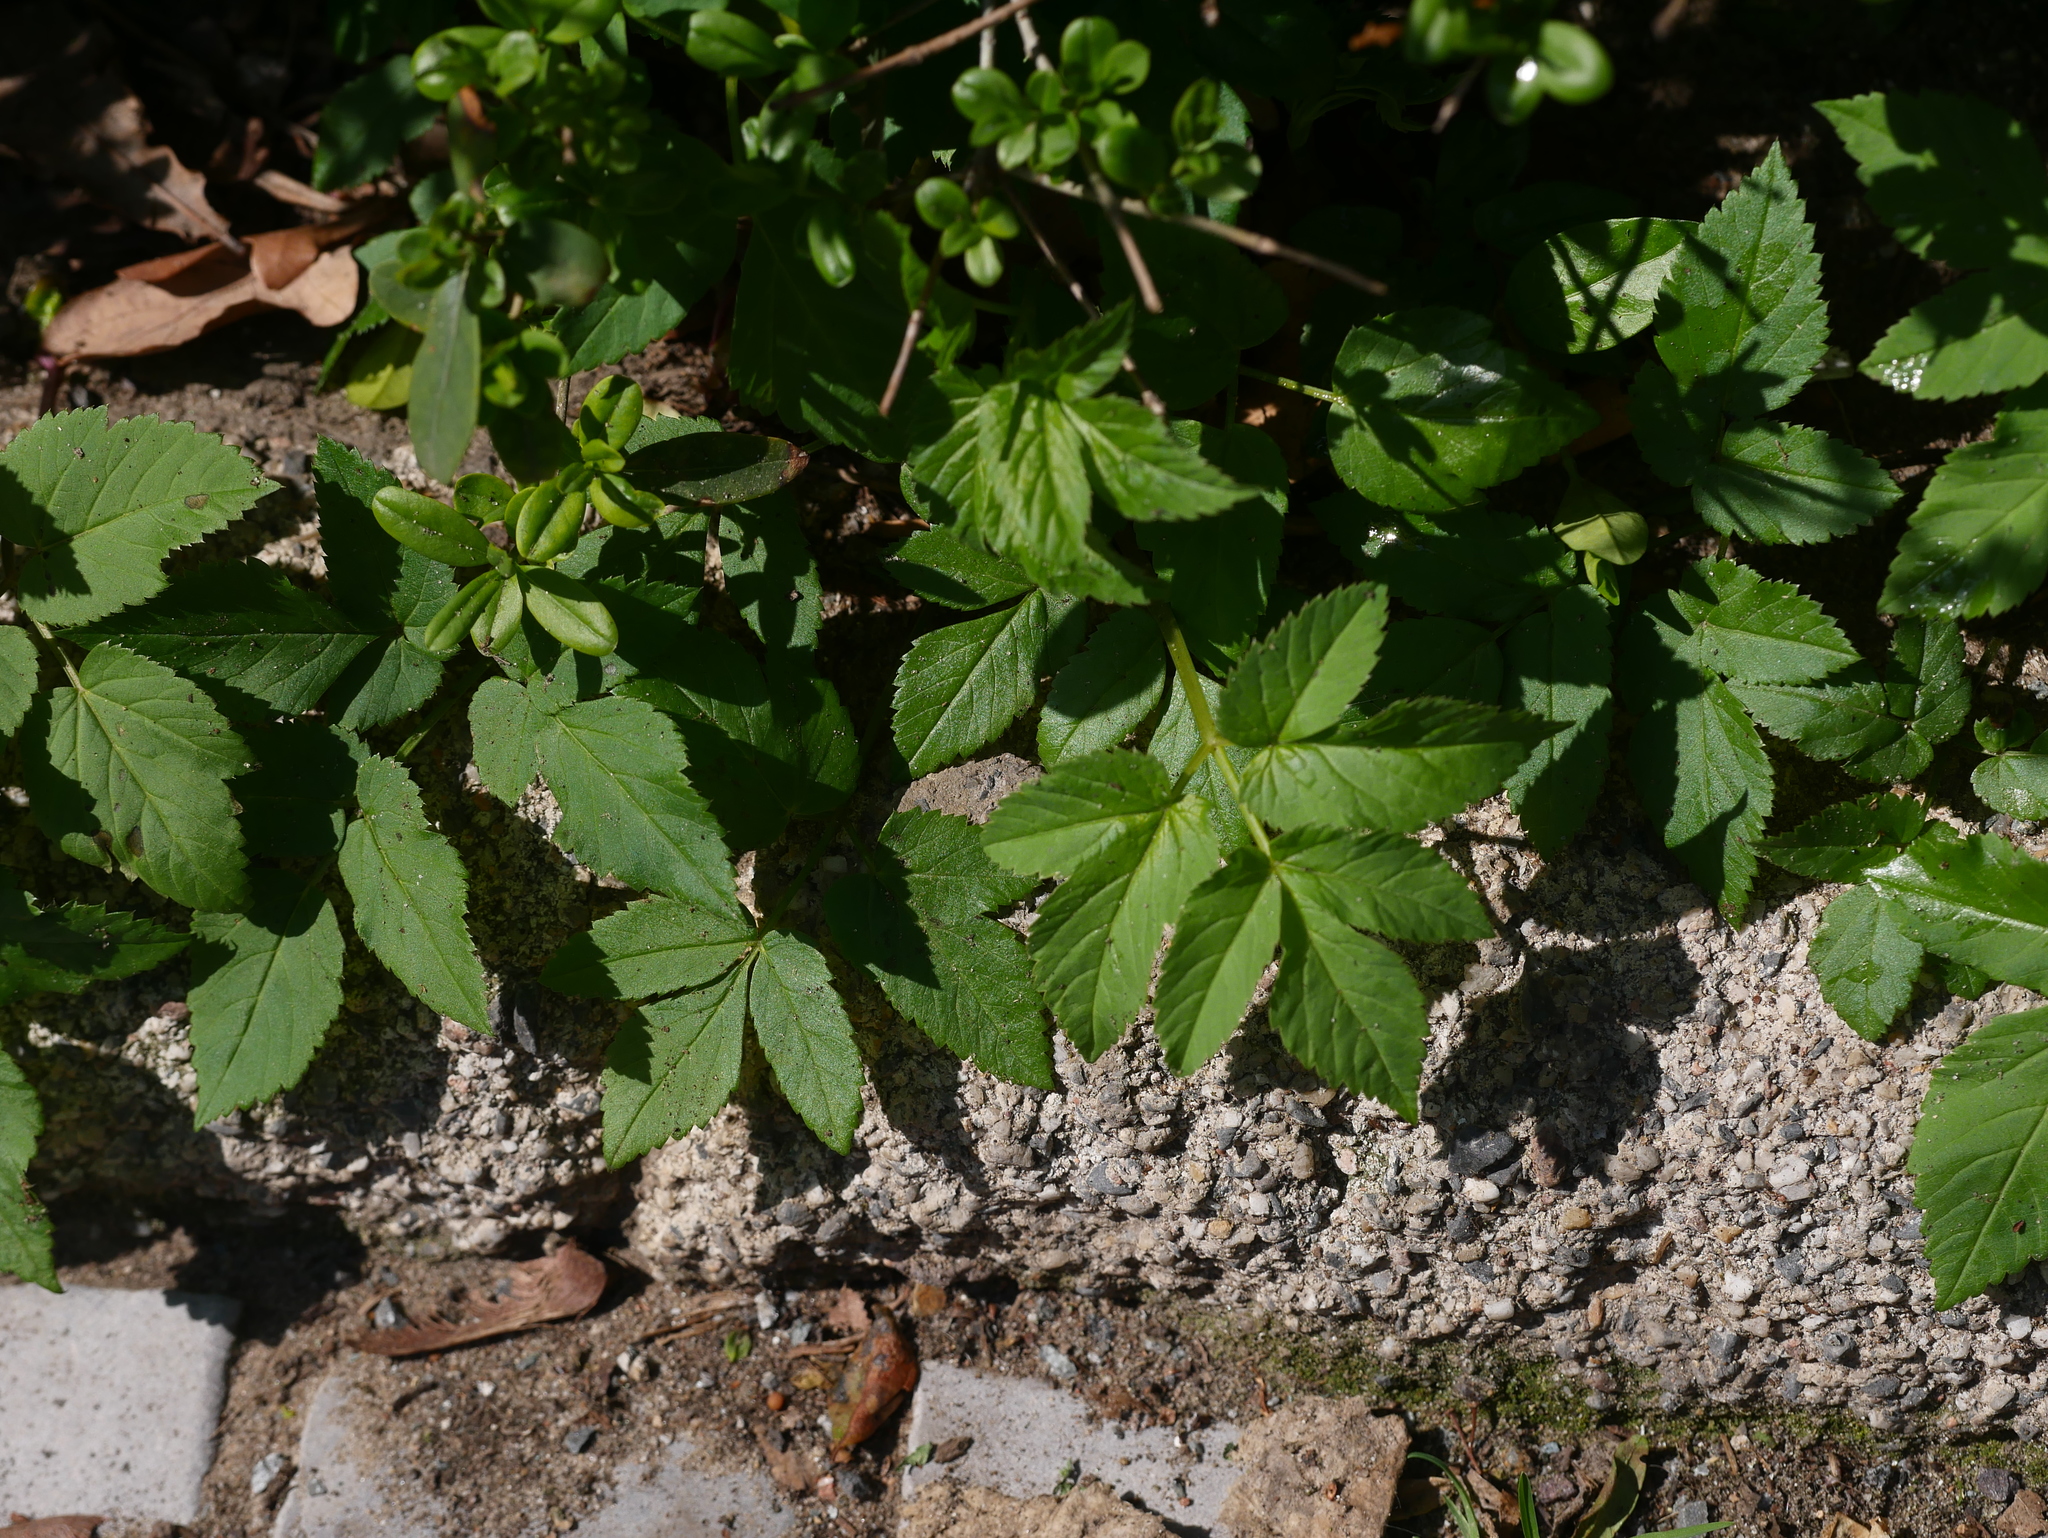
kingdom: Plantae
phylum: Tracheophyta
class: Magnoliopsida
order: Apiales
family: Apiaceae
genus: Aegopodium
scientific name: Aegopodium podagraria
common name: Ground-elder
